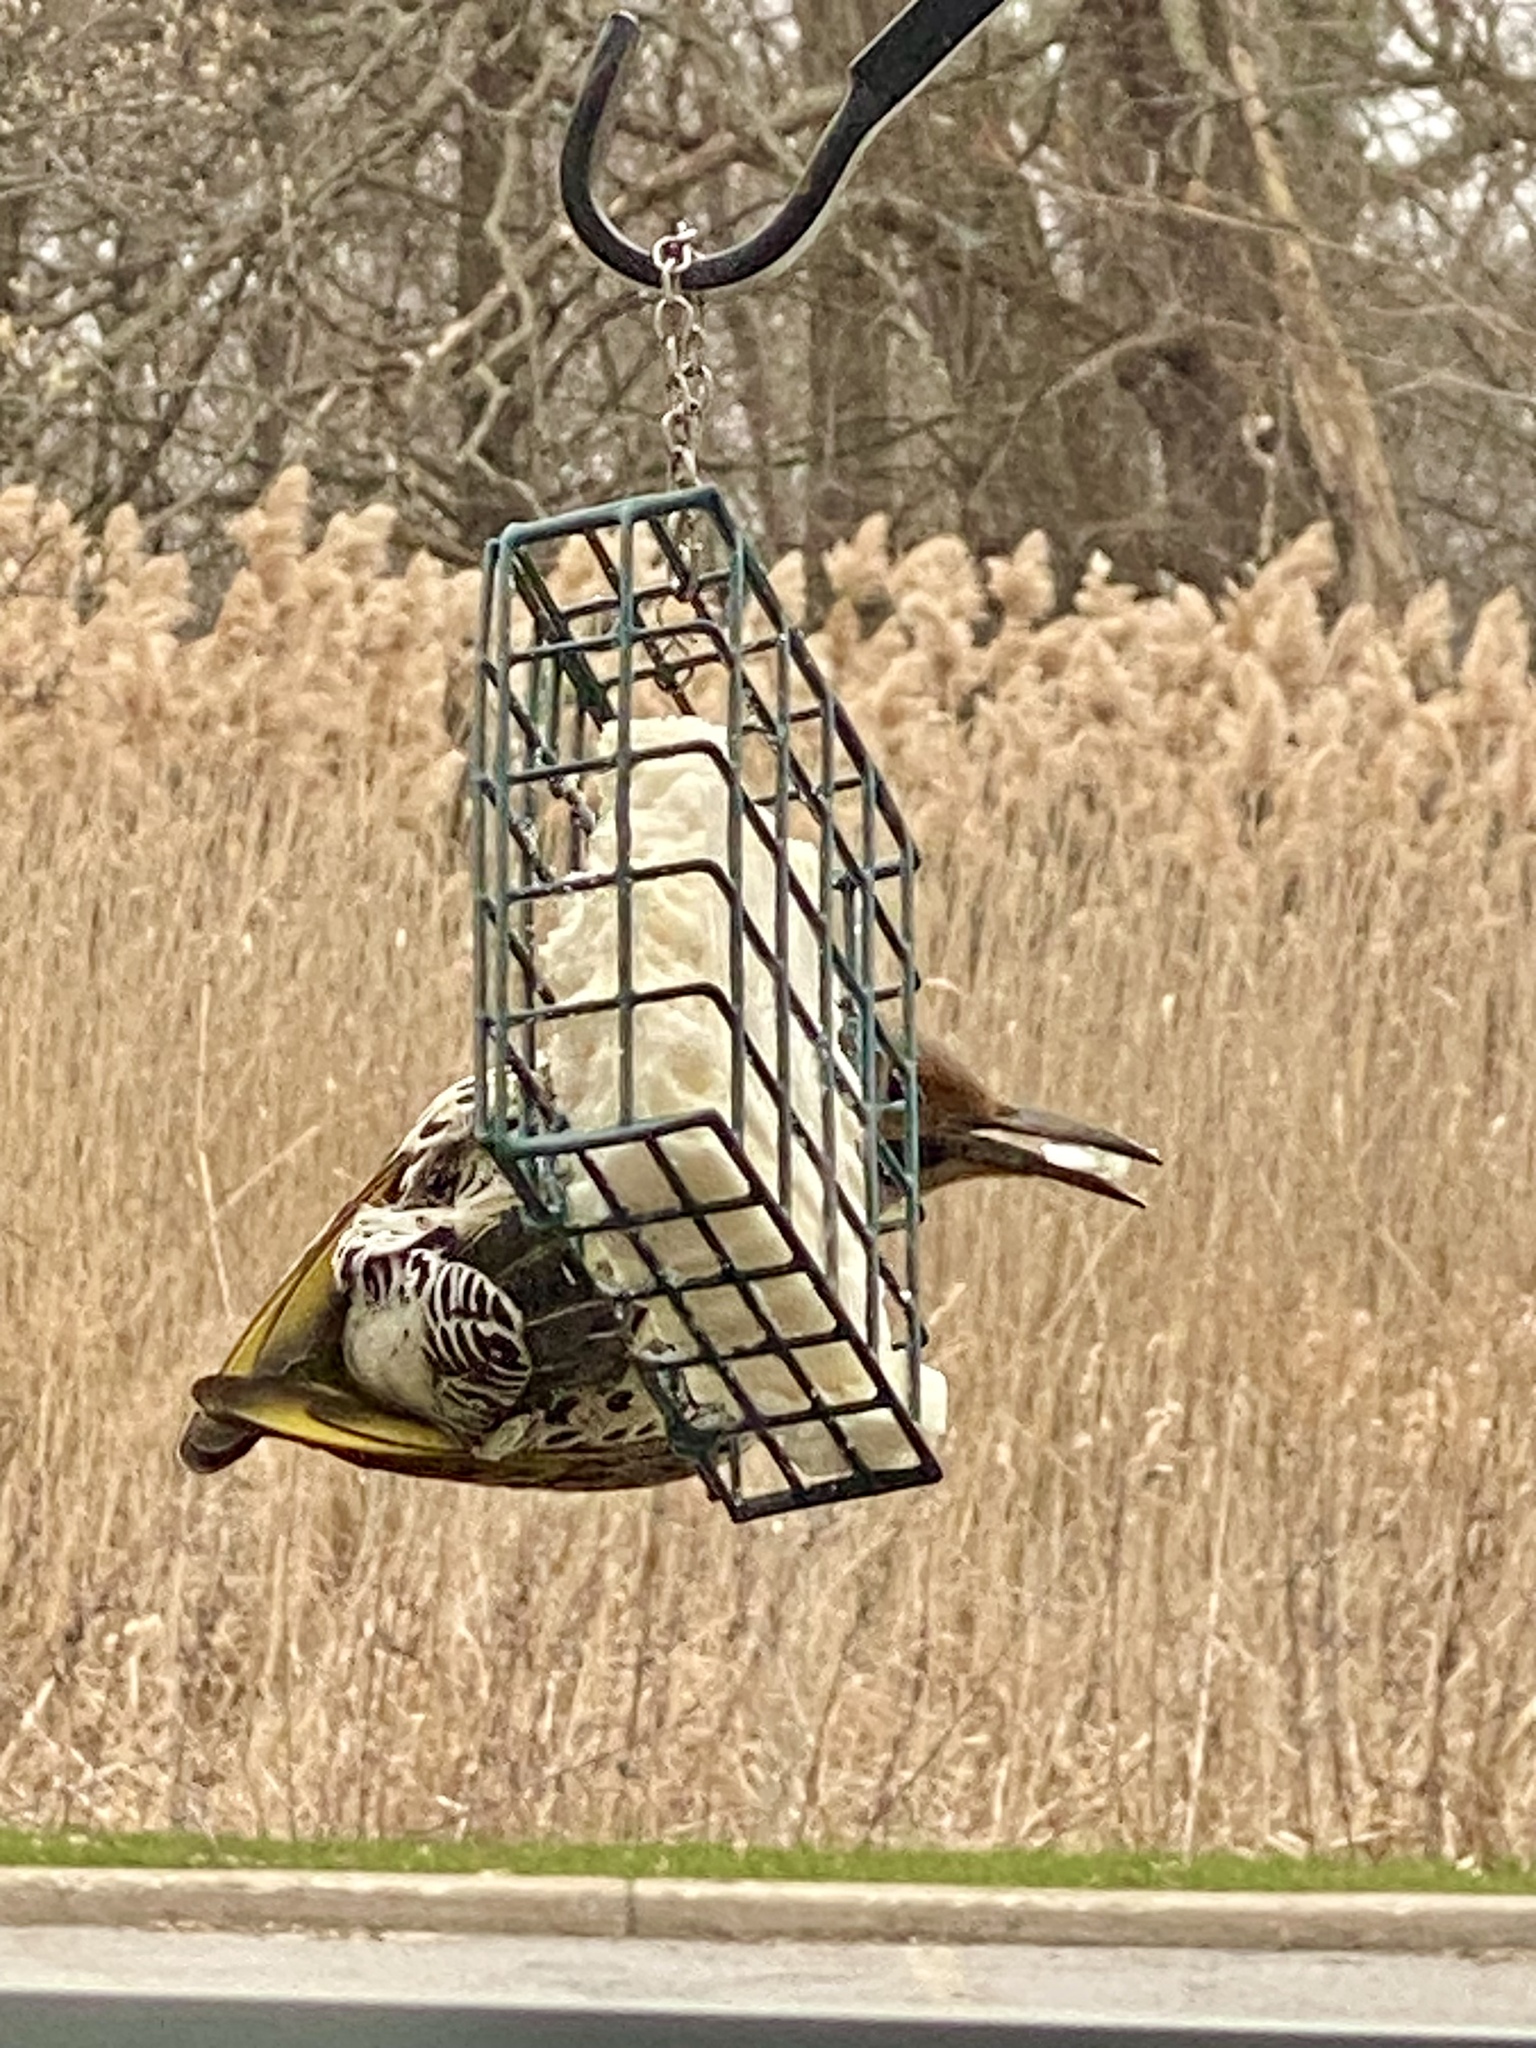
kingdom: Animalia
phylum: Chordata
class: Aves
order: Piciformes
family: Picidae
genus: Colaptes
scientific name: Colaptes auratus
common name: Northern flicker
